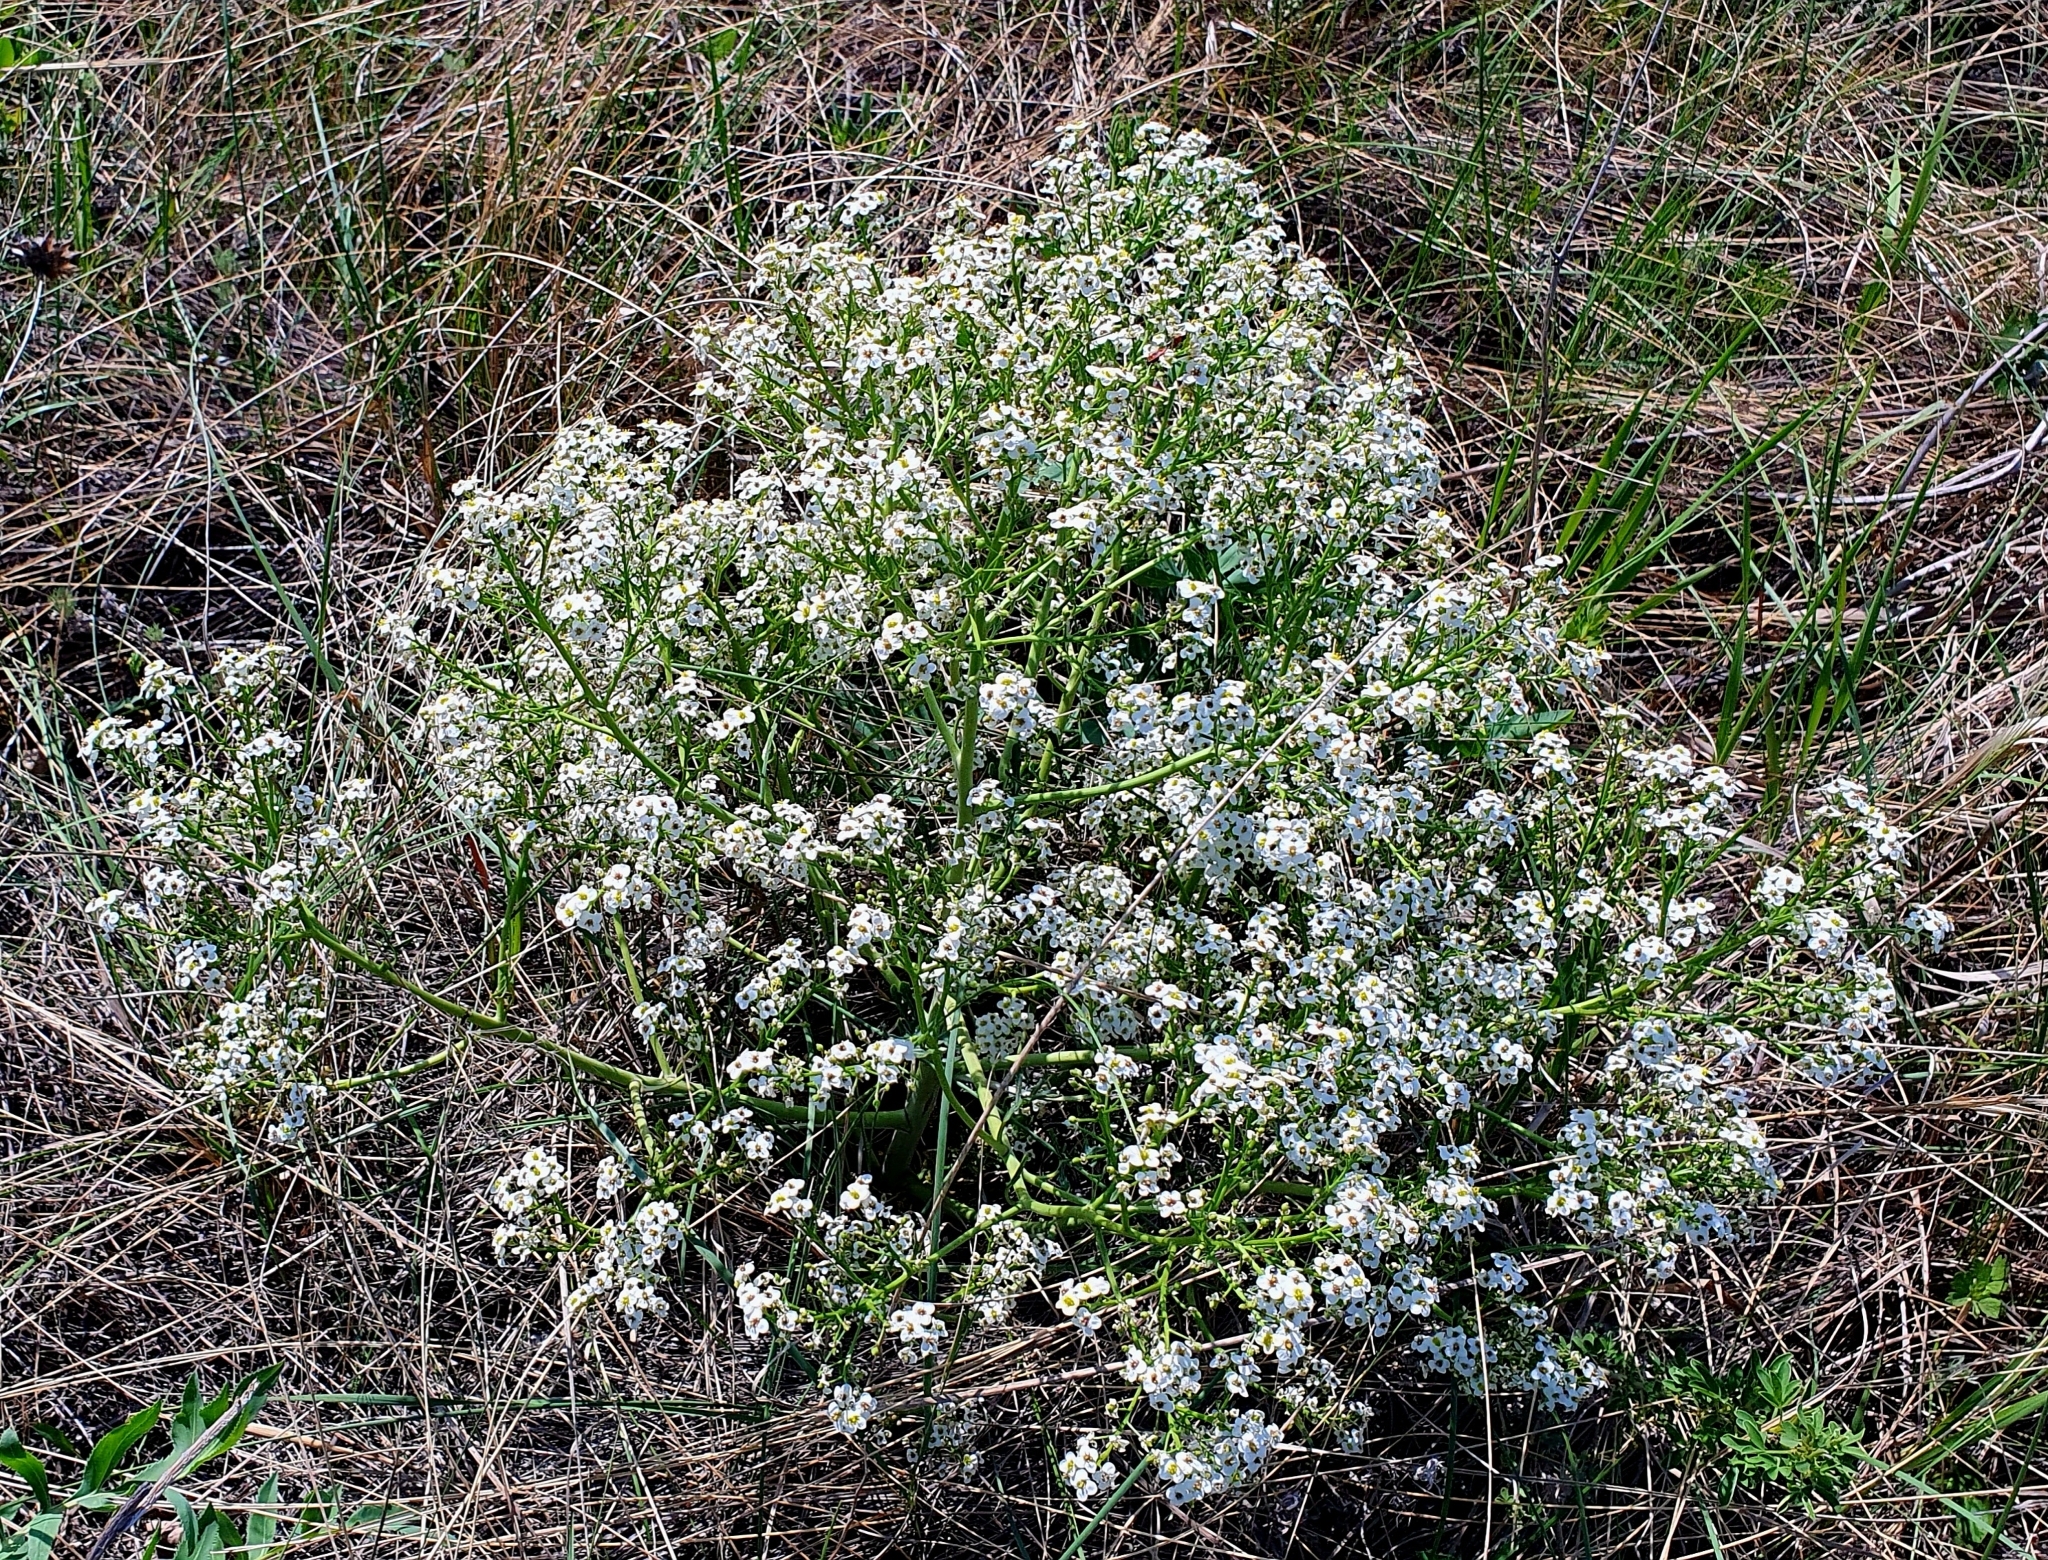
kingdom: Plantae
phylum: Tracheophyta
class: Magnoliopsida
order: Brassicales
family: Brassicaceae
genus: Crambe
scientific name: Crambe tataria
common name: Tartarian breadplant
